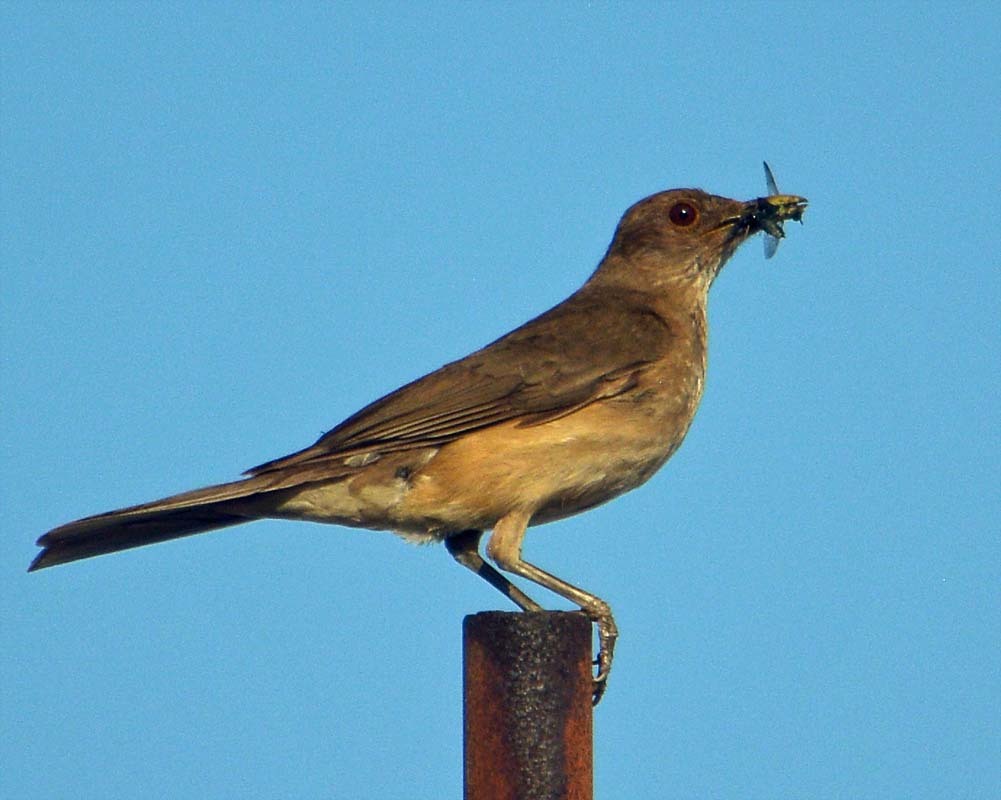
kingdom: Animalia
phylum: Chordata
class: Aves
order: Passeriformes
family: Turdidae
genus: Turdus
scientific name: Turdus grayi
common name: Clay-colored thrush
